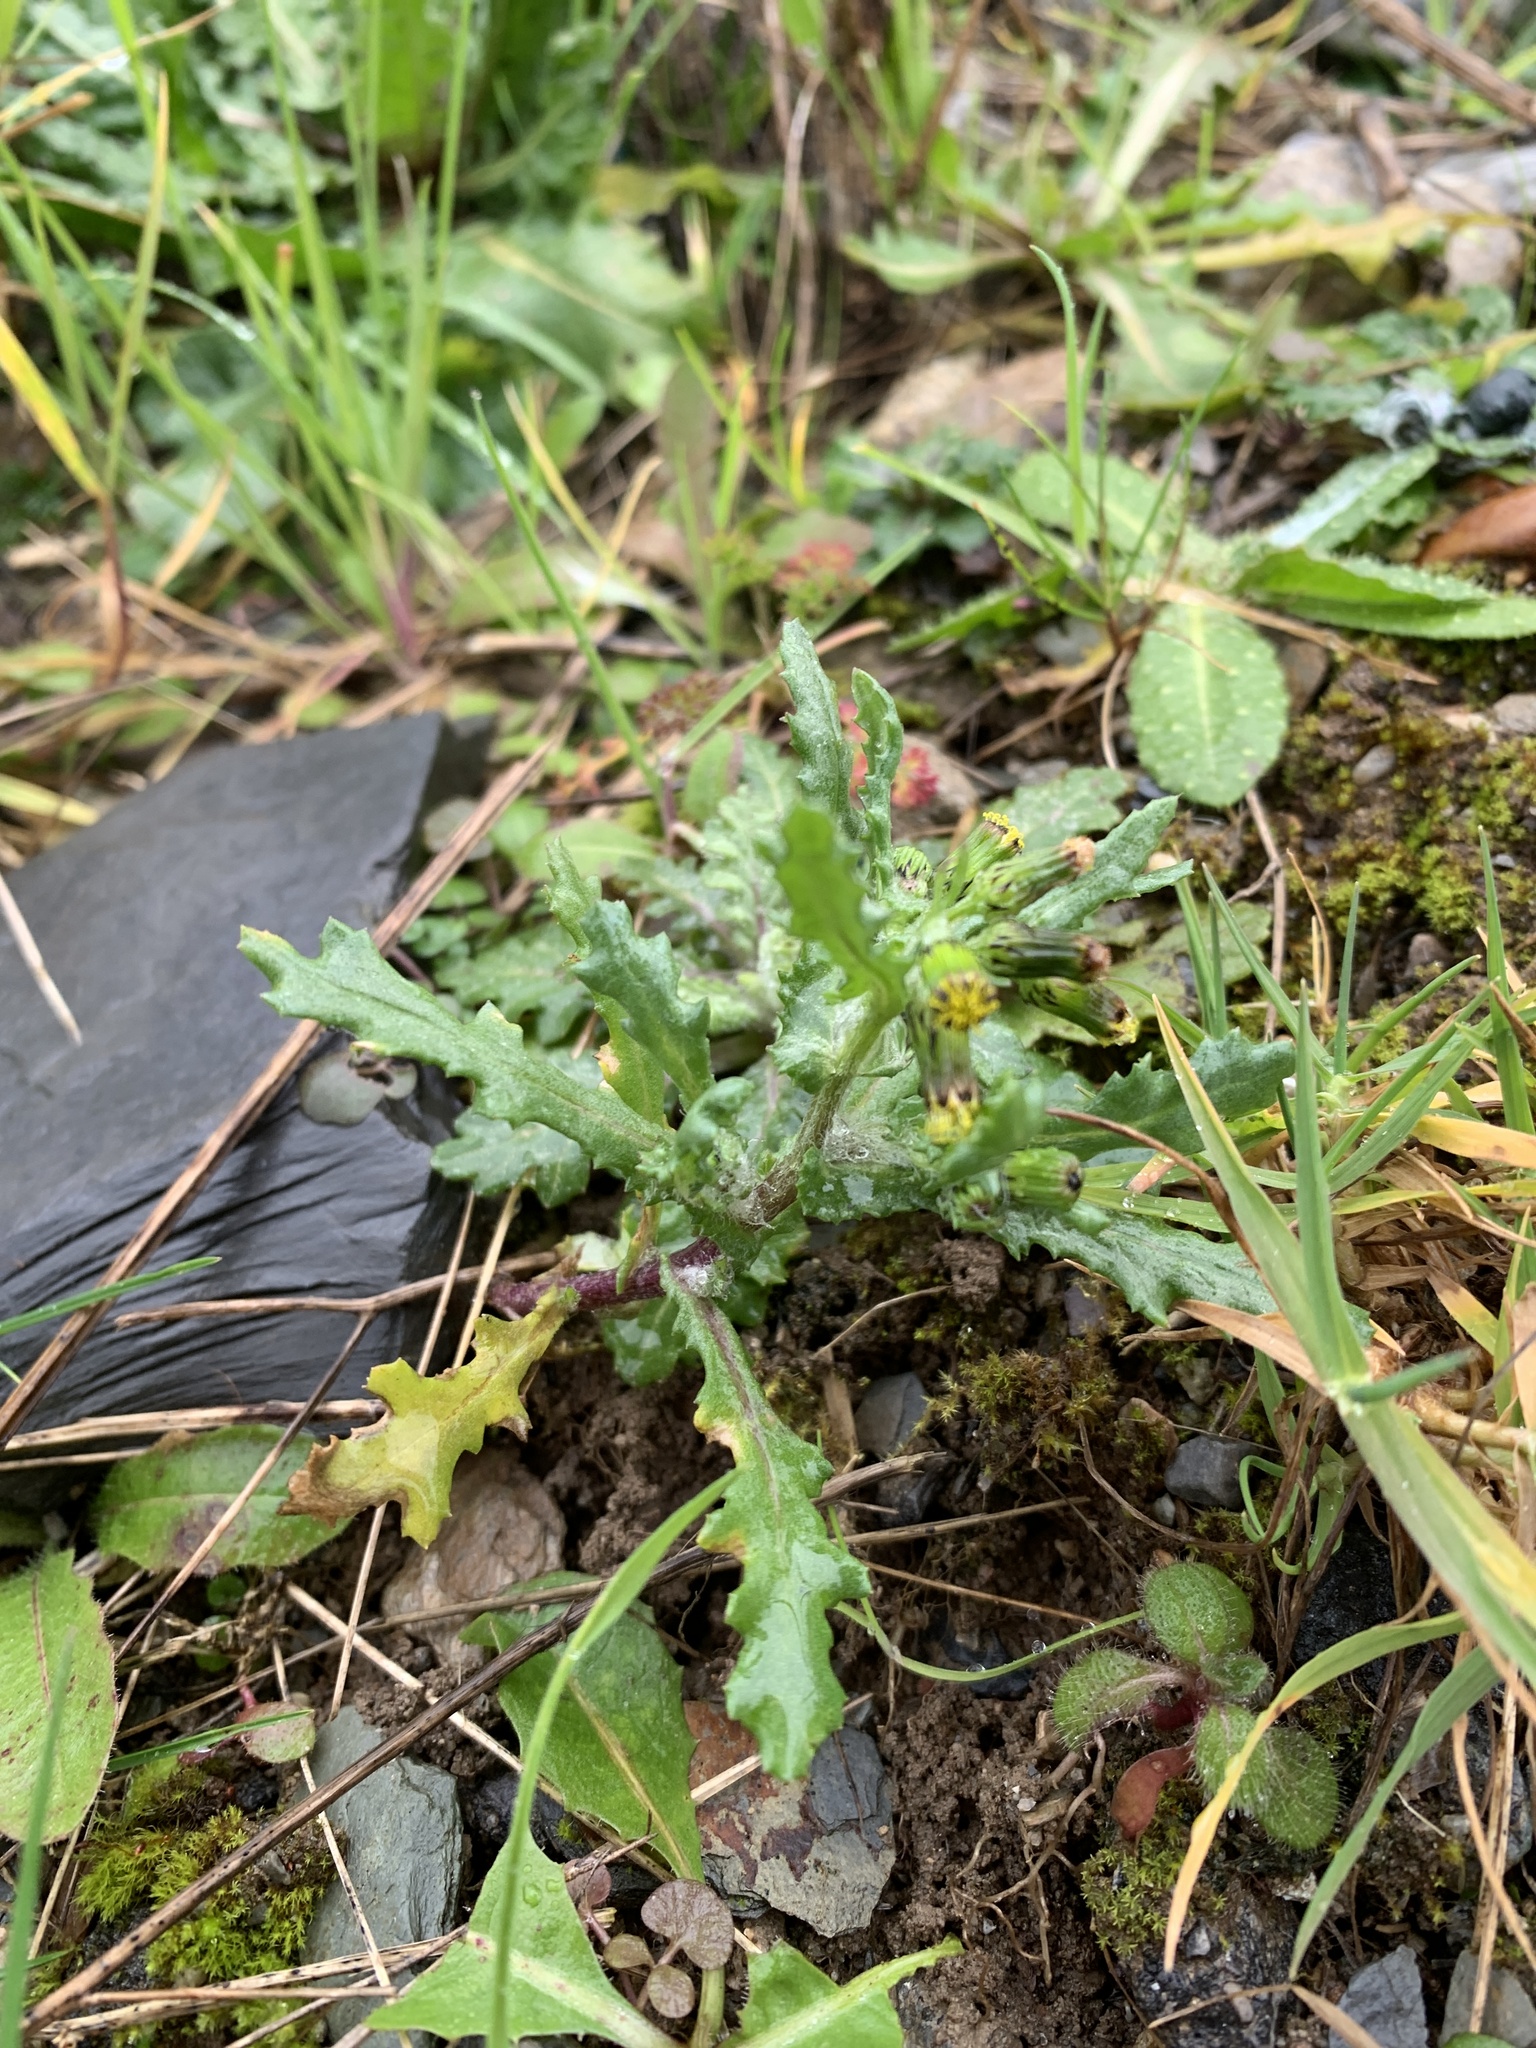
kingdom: Plantae
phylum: Tracheophyta
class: Magnoliopsida
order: Asterales
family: Asteraceae
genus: Senecio
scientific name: Senecio vulgaris
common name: Old-man-in-the-spring
